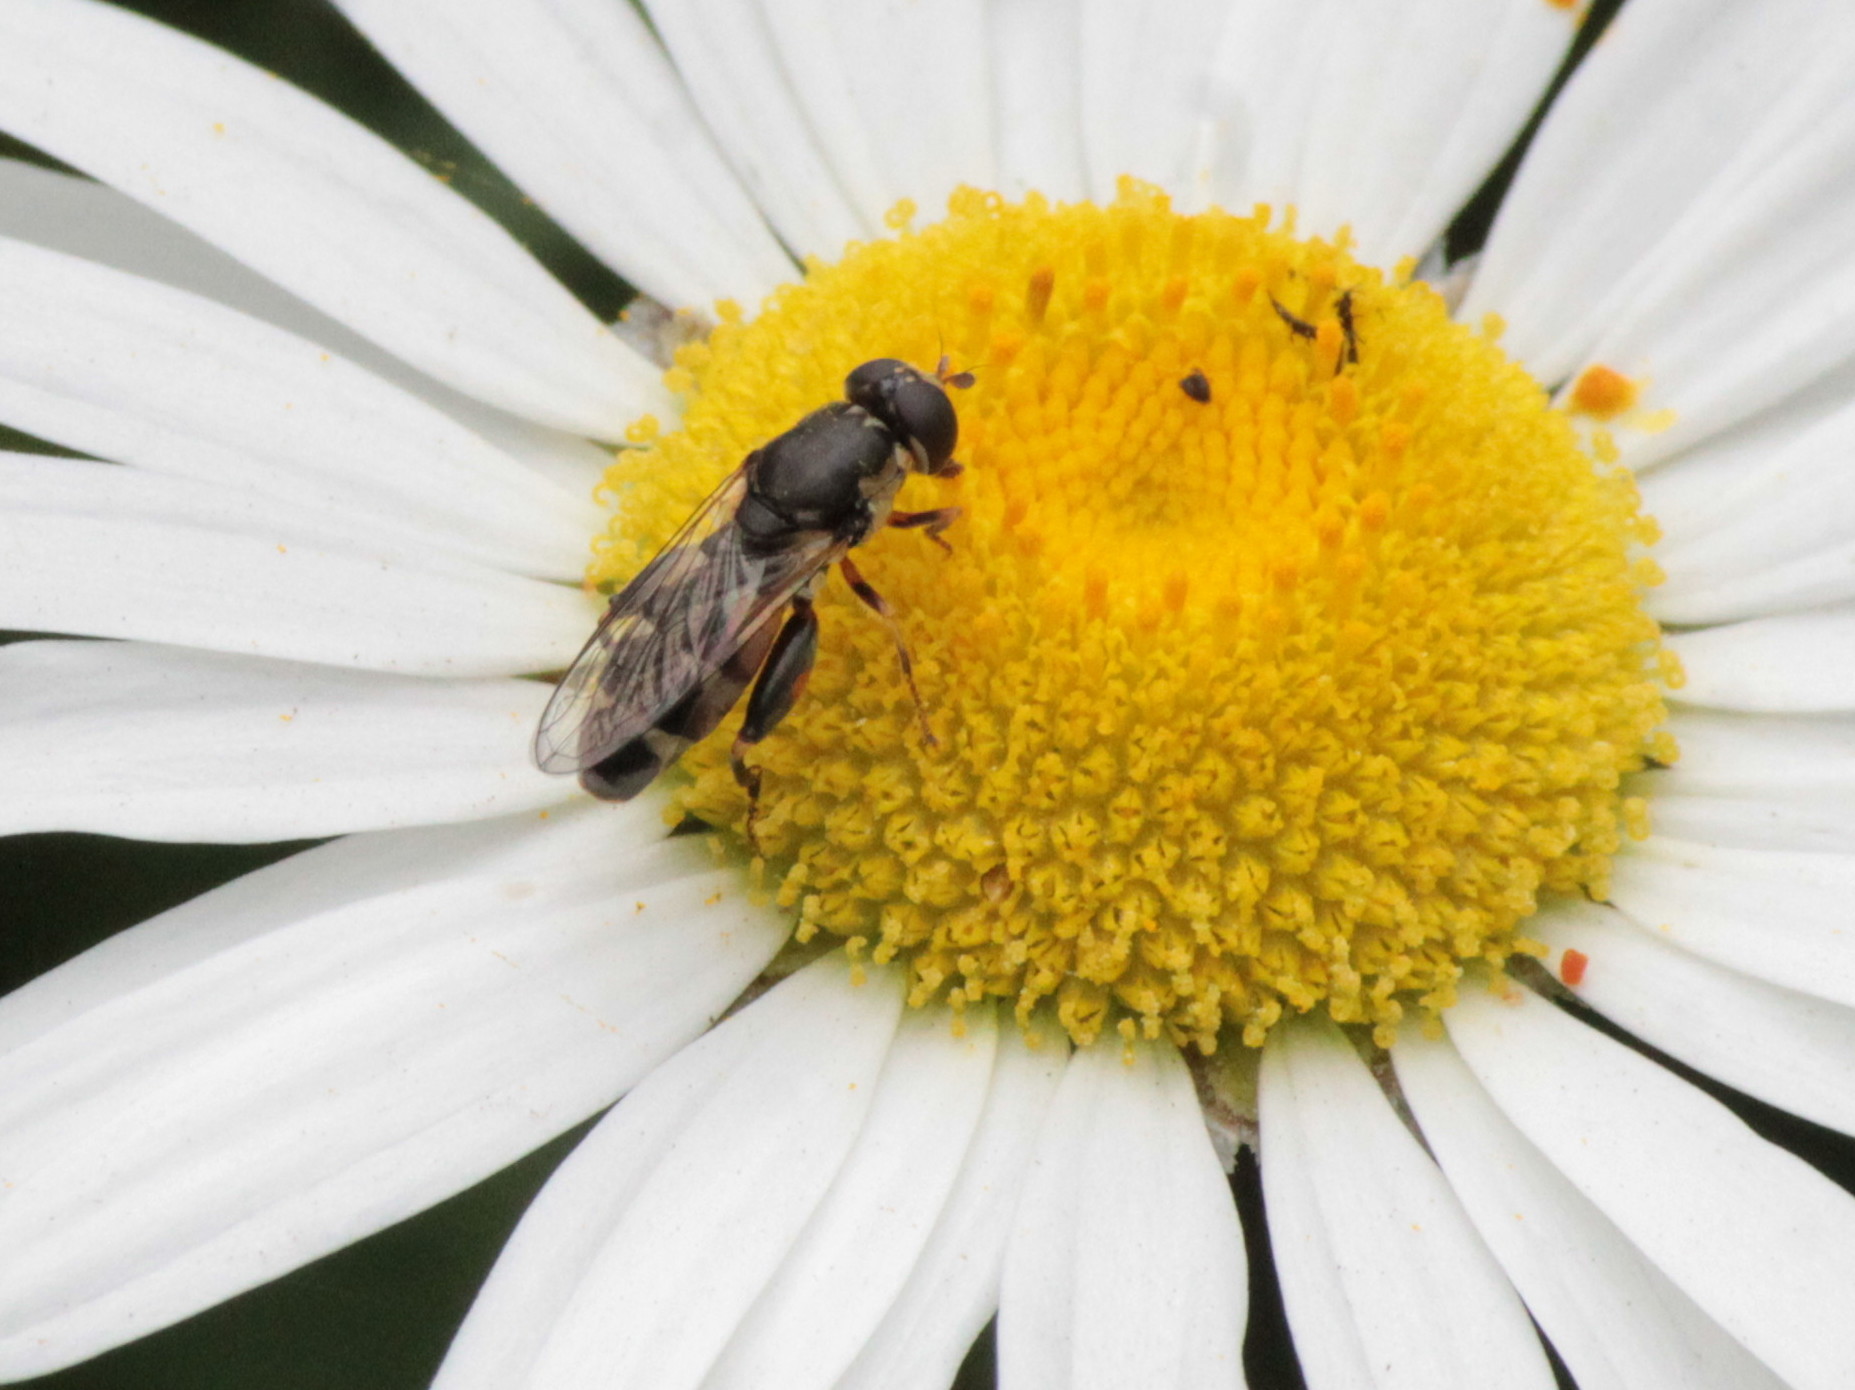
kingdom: Animalia
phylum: Arthropoda
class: Insecta
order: Diptera
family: Syrphidae
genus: Syritta
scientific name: Syritta pipiens
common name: Hover fly
